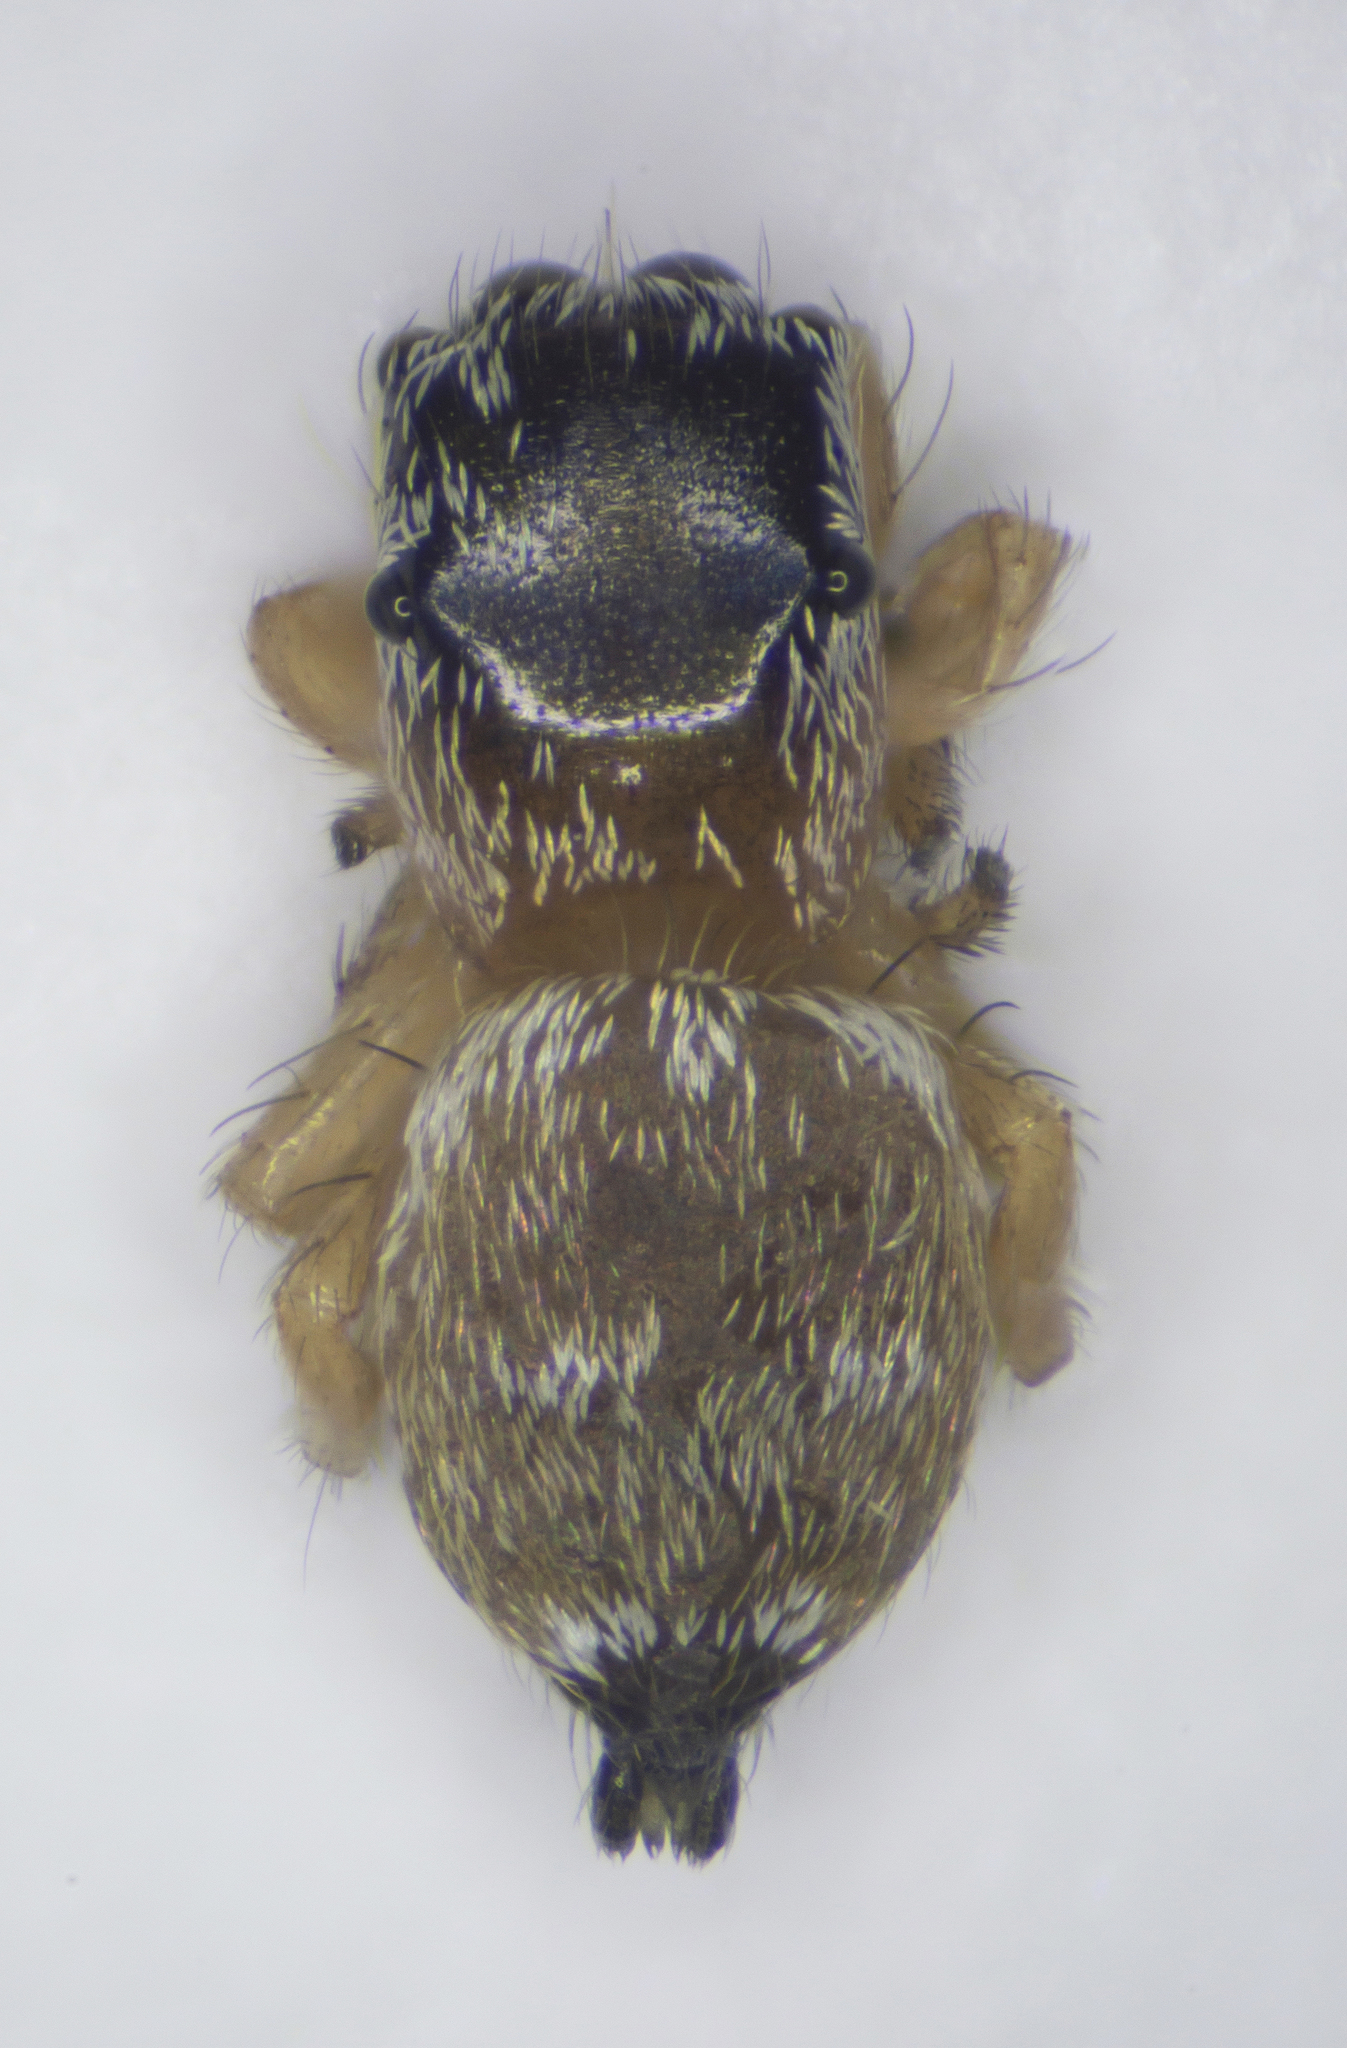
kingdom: Animalia
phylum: Arthropoda
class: Arachnida
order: Araneae
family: Salticidae
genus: Heliophanus
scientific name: Heliophanus tribulosus
